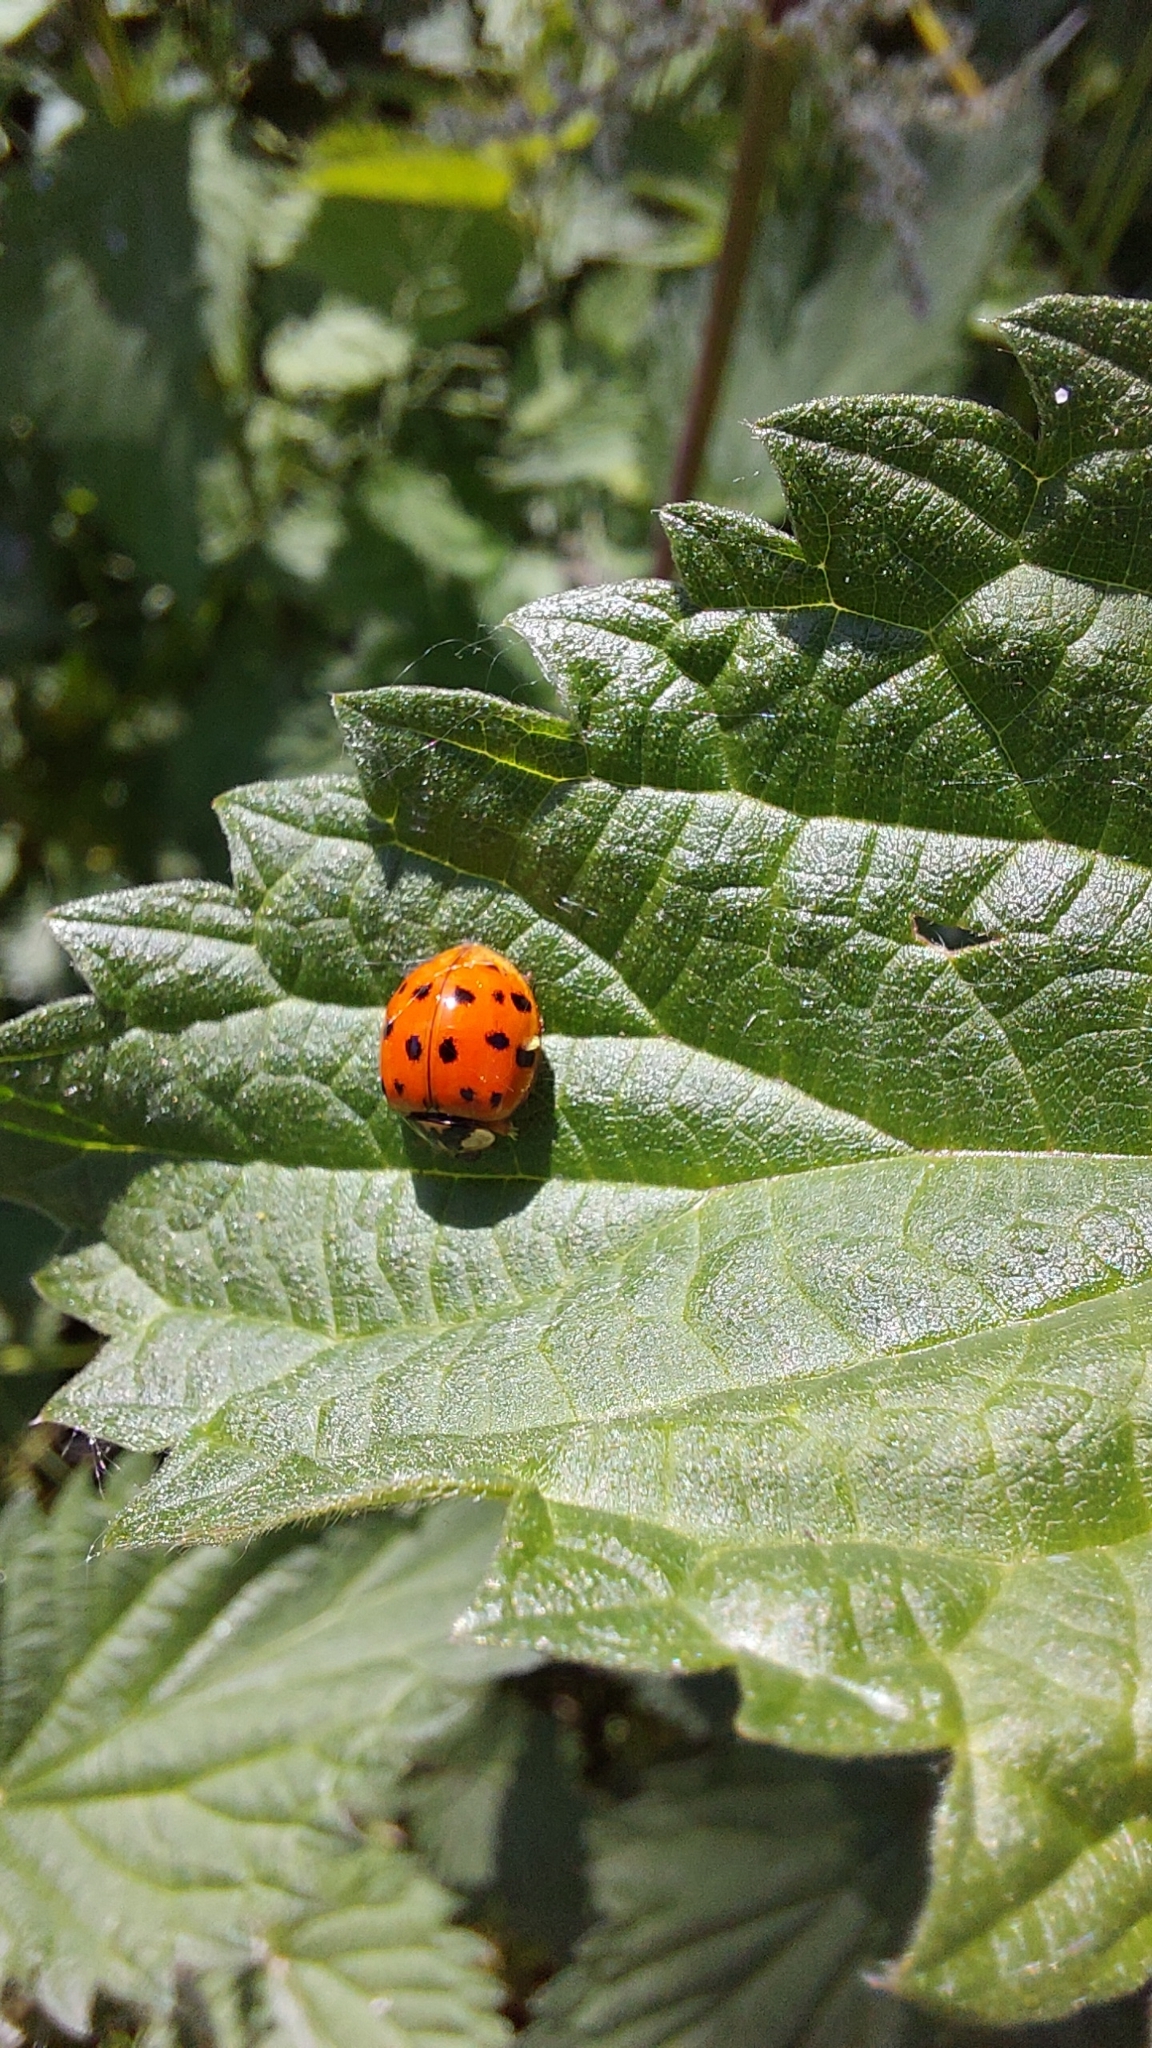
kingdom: Animalia
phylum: Arthropoda
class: Insecta
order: Coleoptera
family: Coccinellidae
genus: Harmonia
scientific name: Harmonia axyridis
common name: Harlequin ladybird
